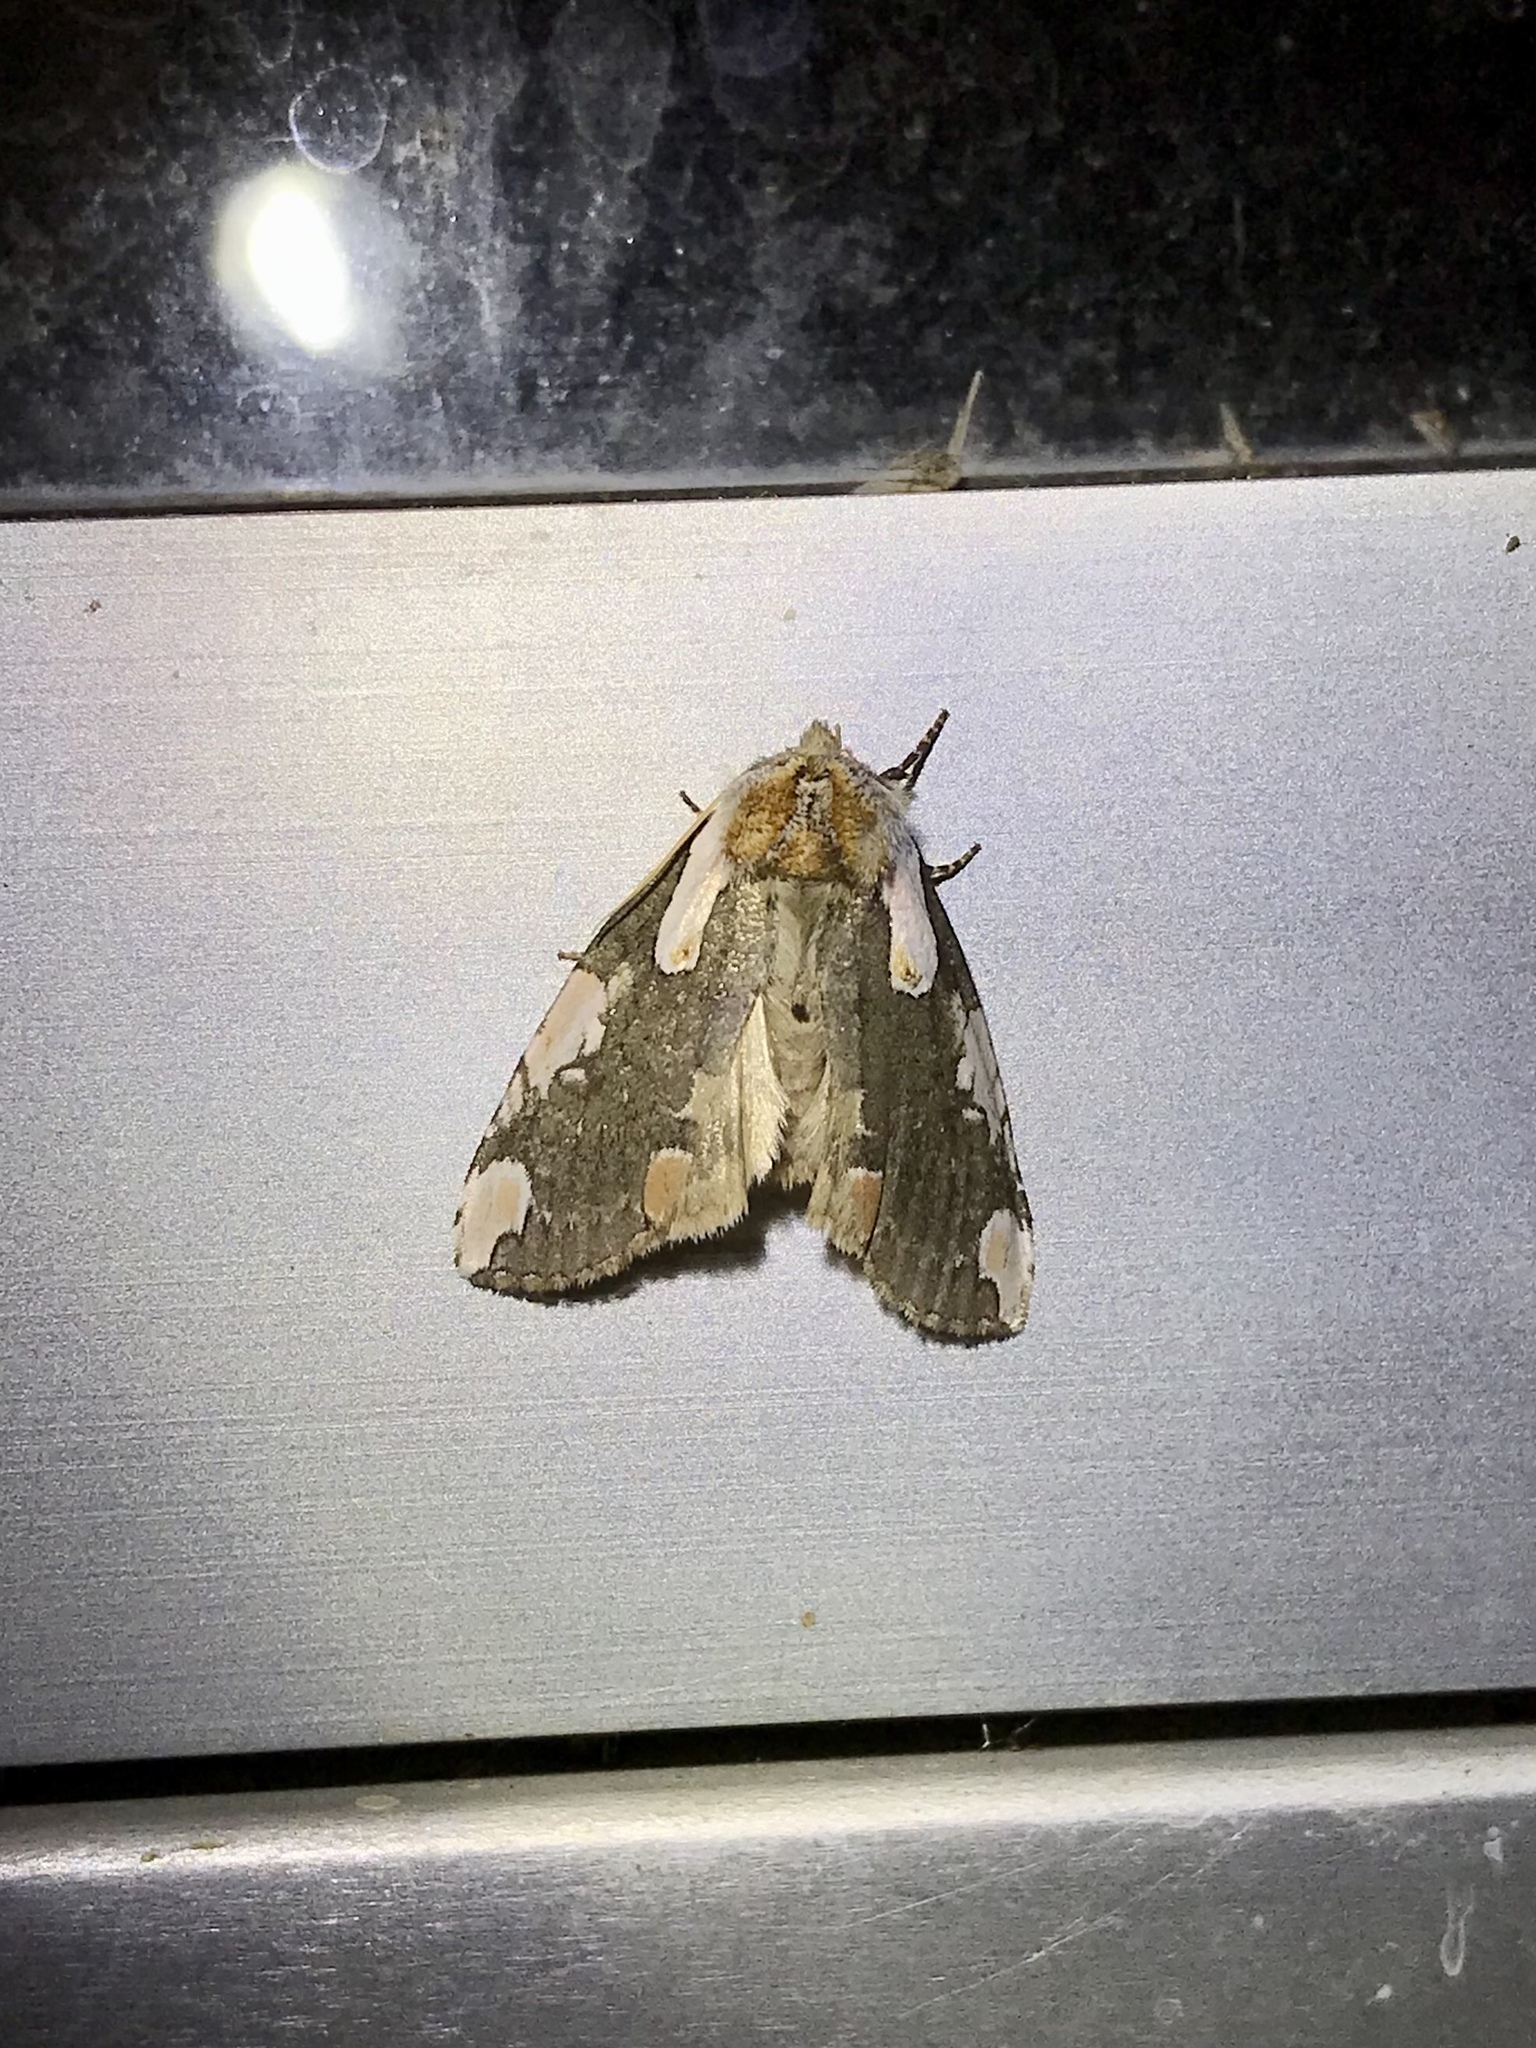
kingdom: Animalia
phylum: Arthropoda
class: Insecta
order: Lepidoptera
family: Drepanidae
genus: Euthyatira
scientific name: Euthyatira pudens
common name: Dogwood thyatirid moth
